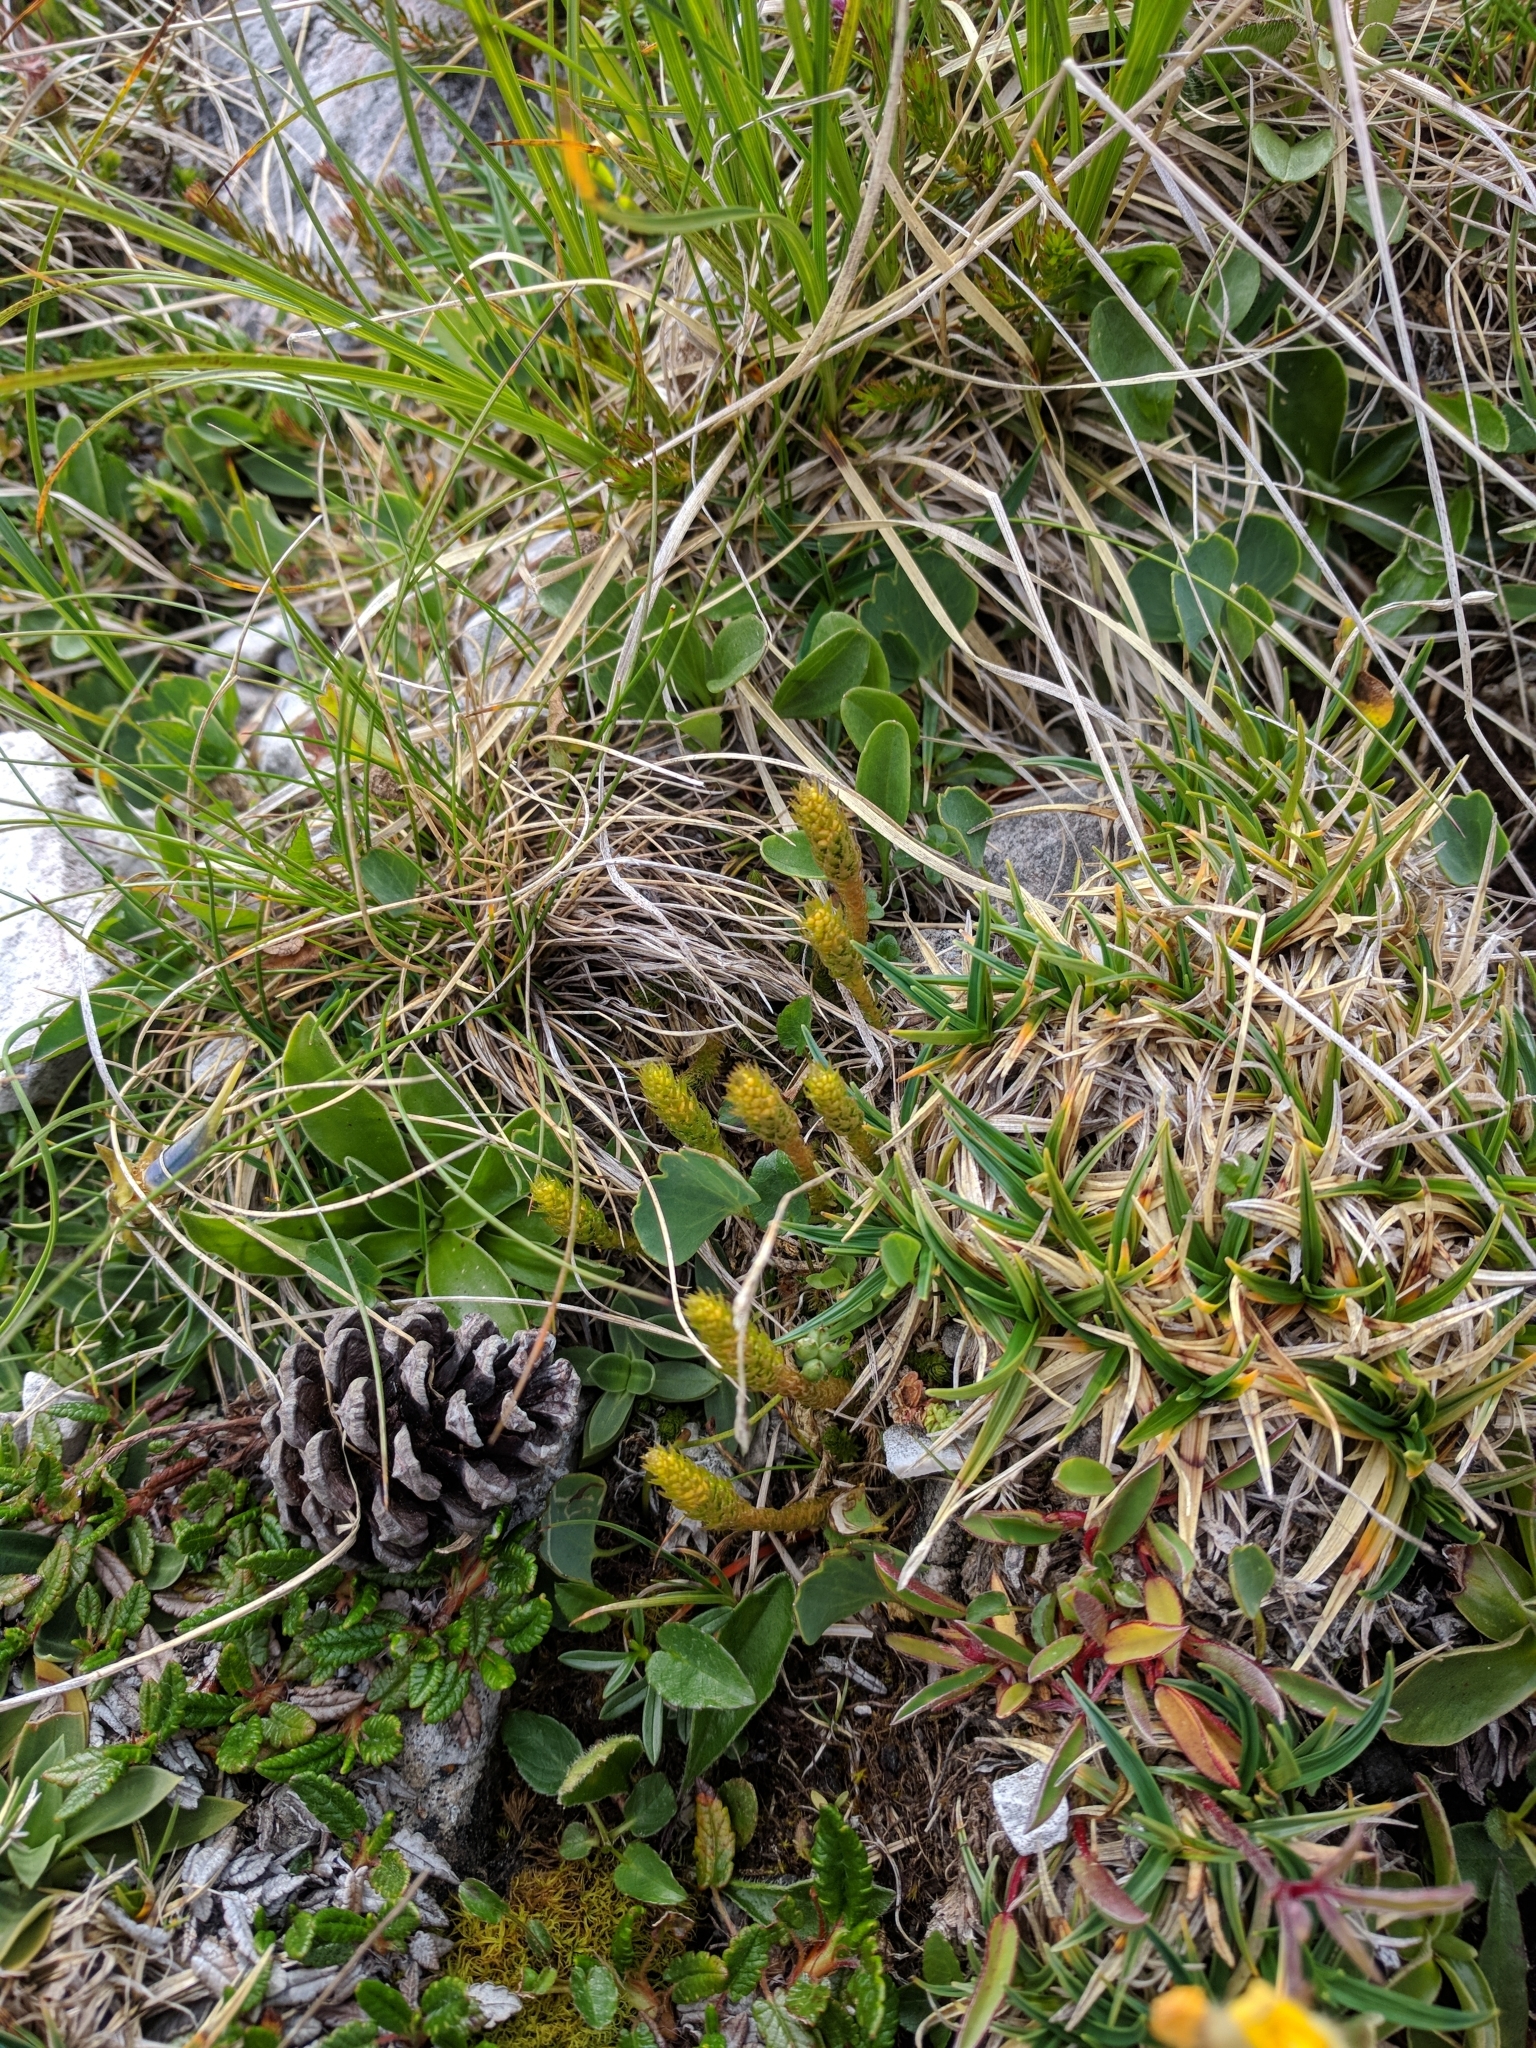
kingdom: Plantae
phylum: Tracheophyta
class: Lycopodiopsida
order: Selaginellales
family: Selaginellaceae
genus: Selaginella
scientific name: Selaginella selaginoides
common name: Prickly mountain-moss
